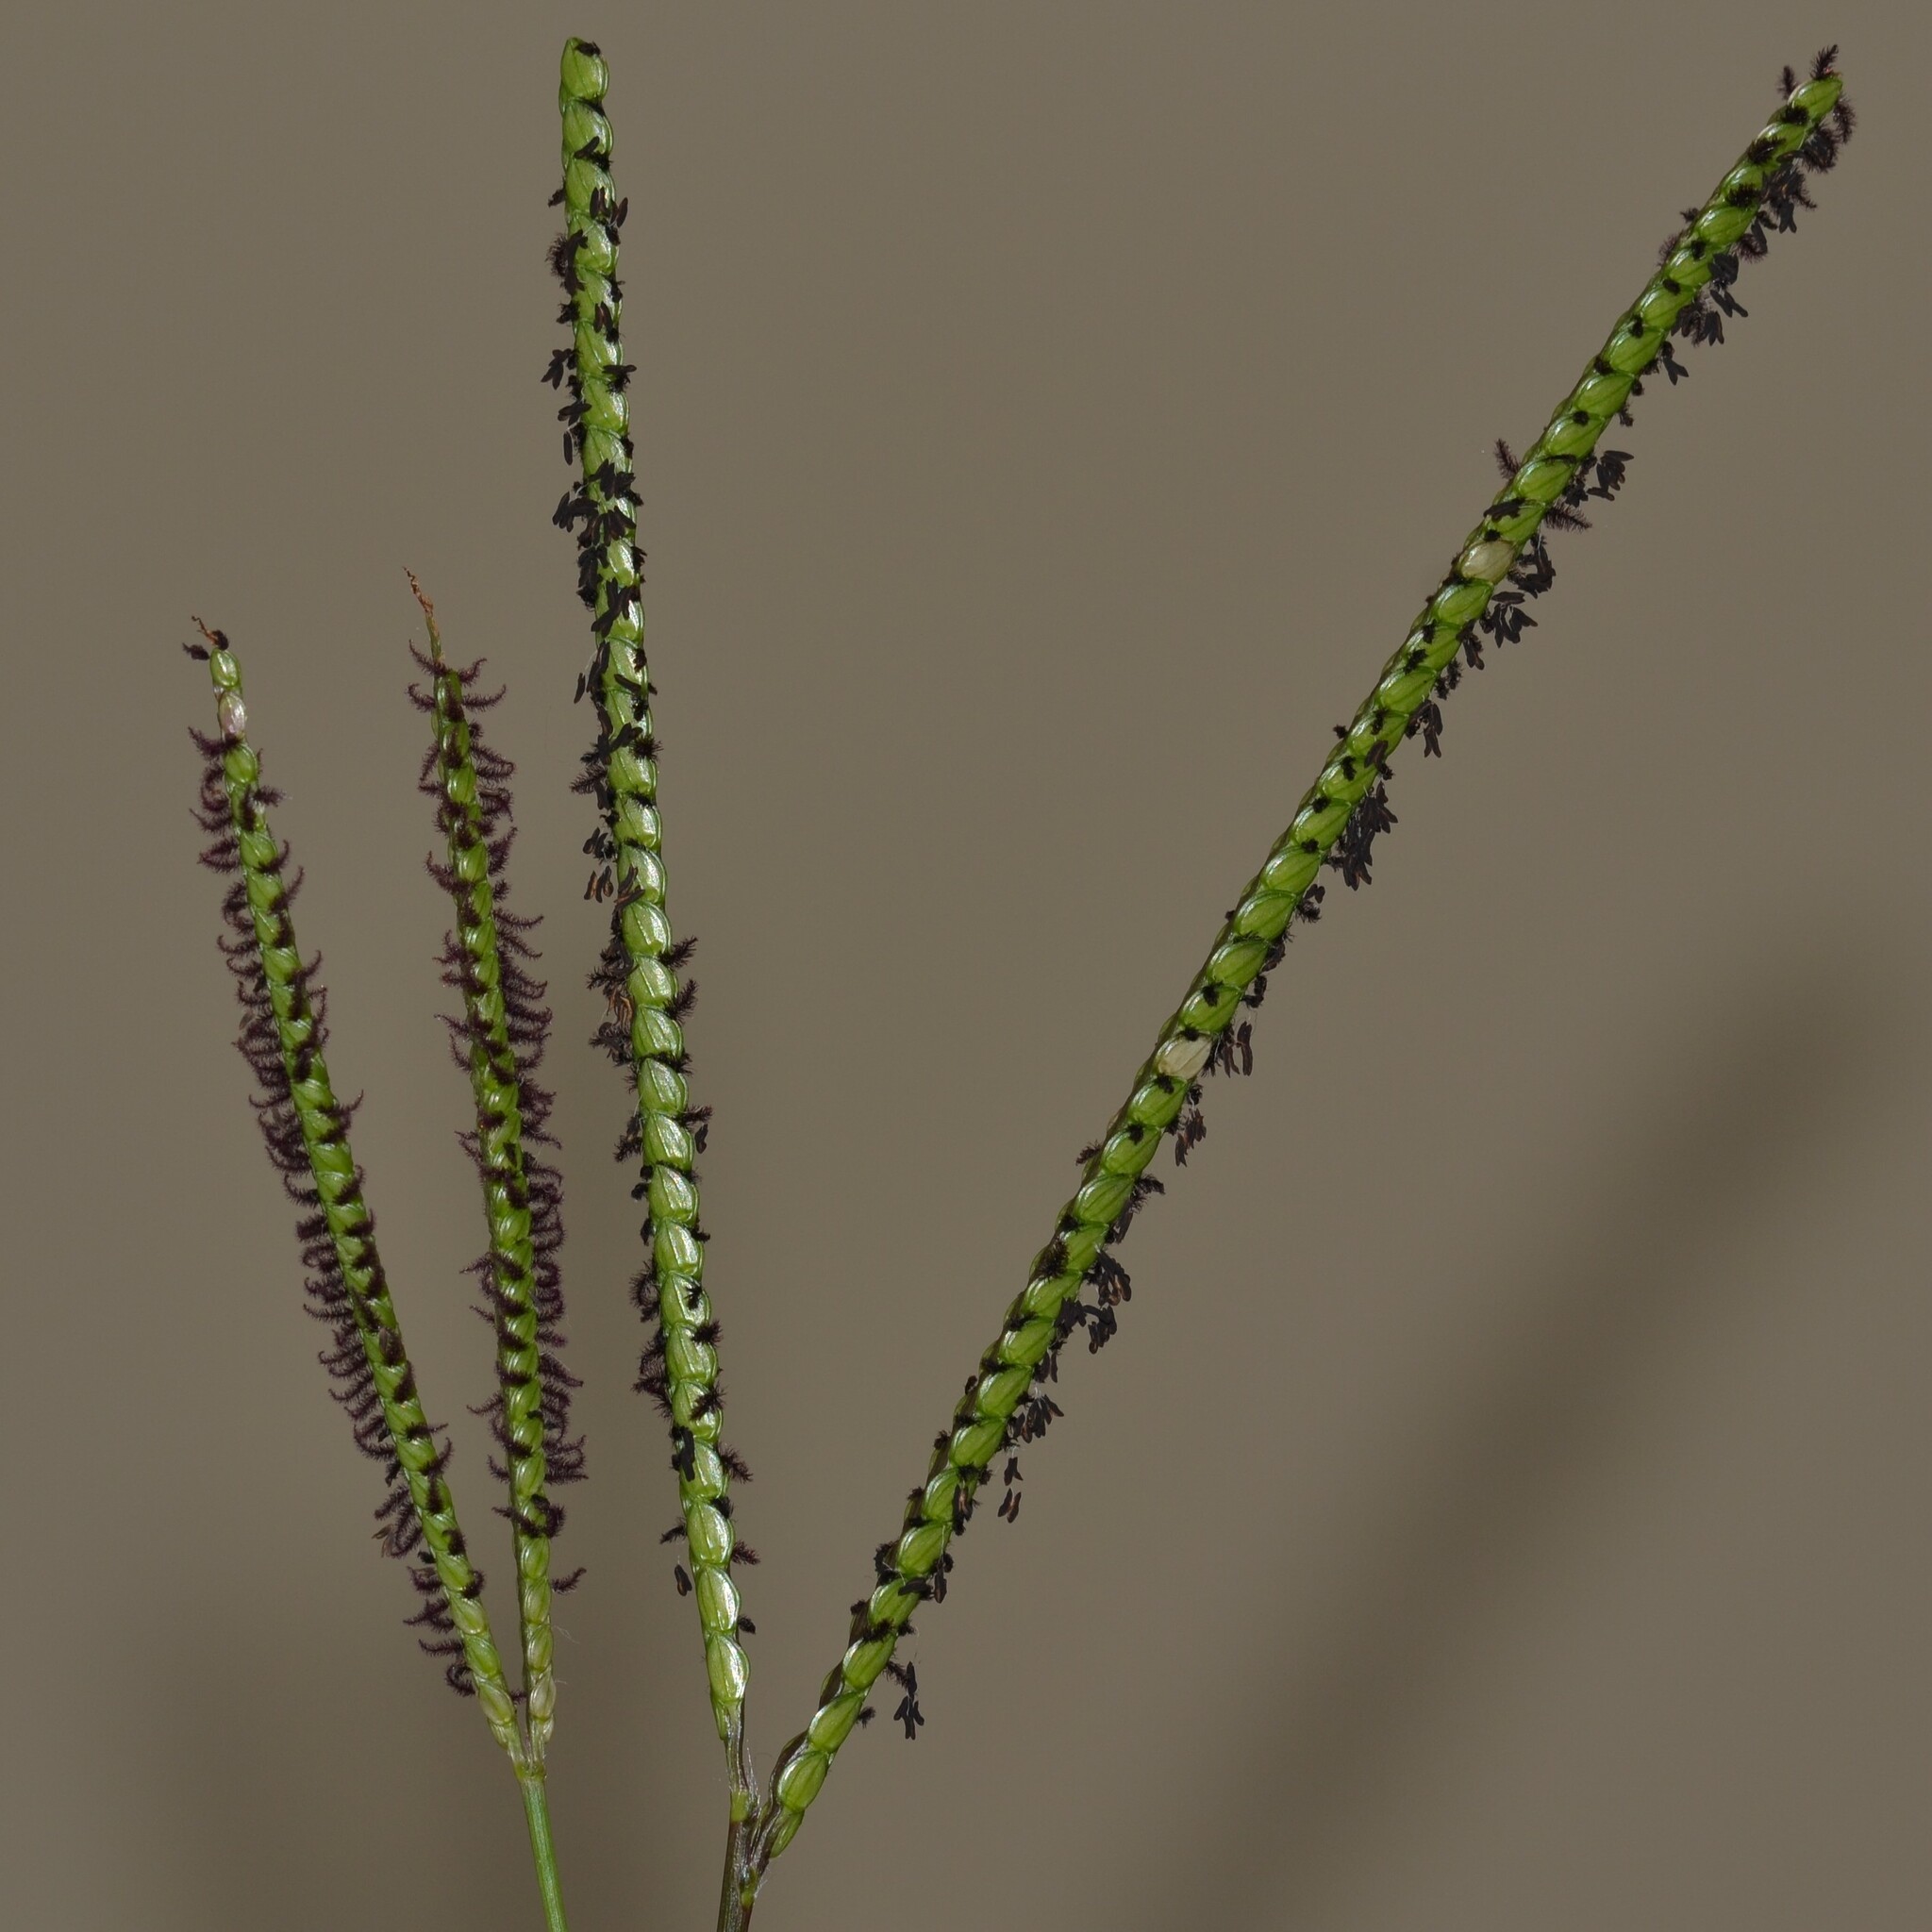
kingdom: Plantae
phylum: Tracheophyta
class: Liliopsida
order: Poales
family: Poaceae
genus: Paspalum
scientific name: Paspalum notatum
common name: Bahiagrass
